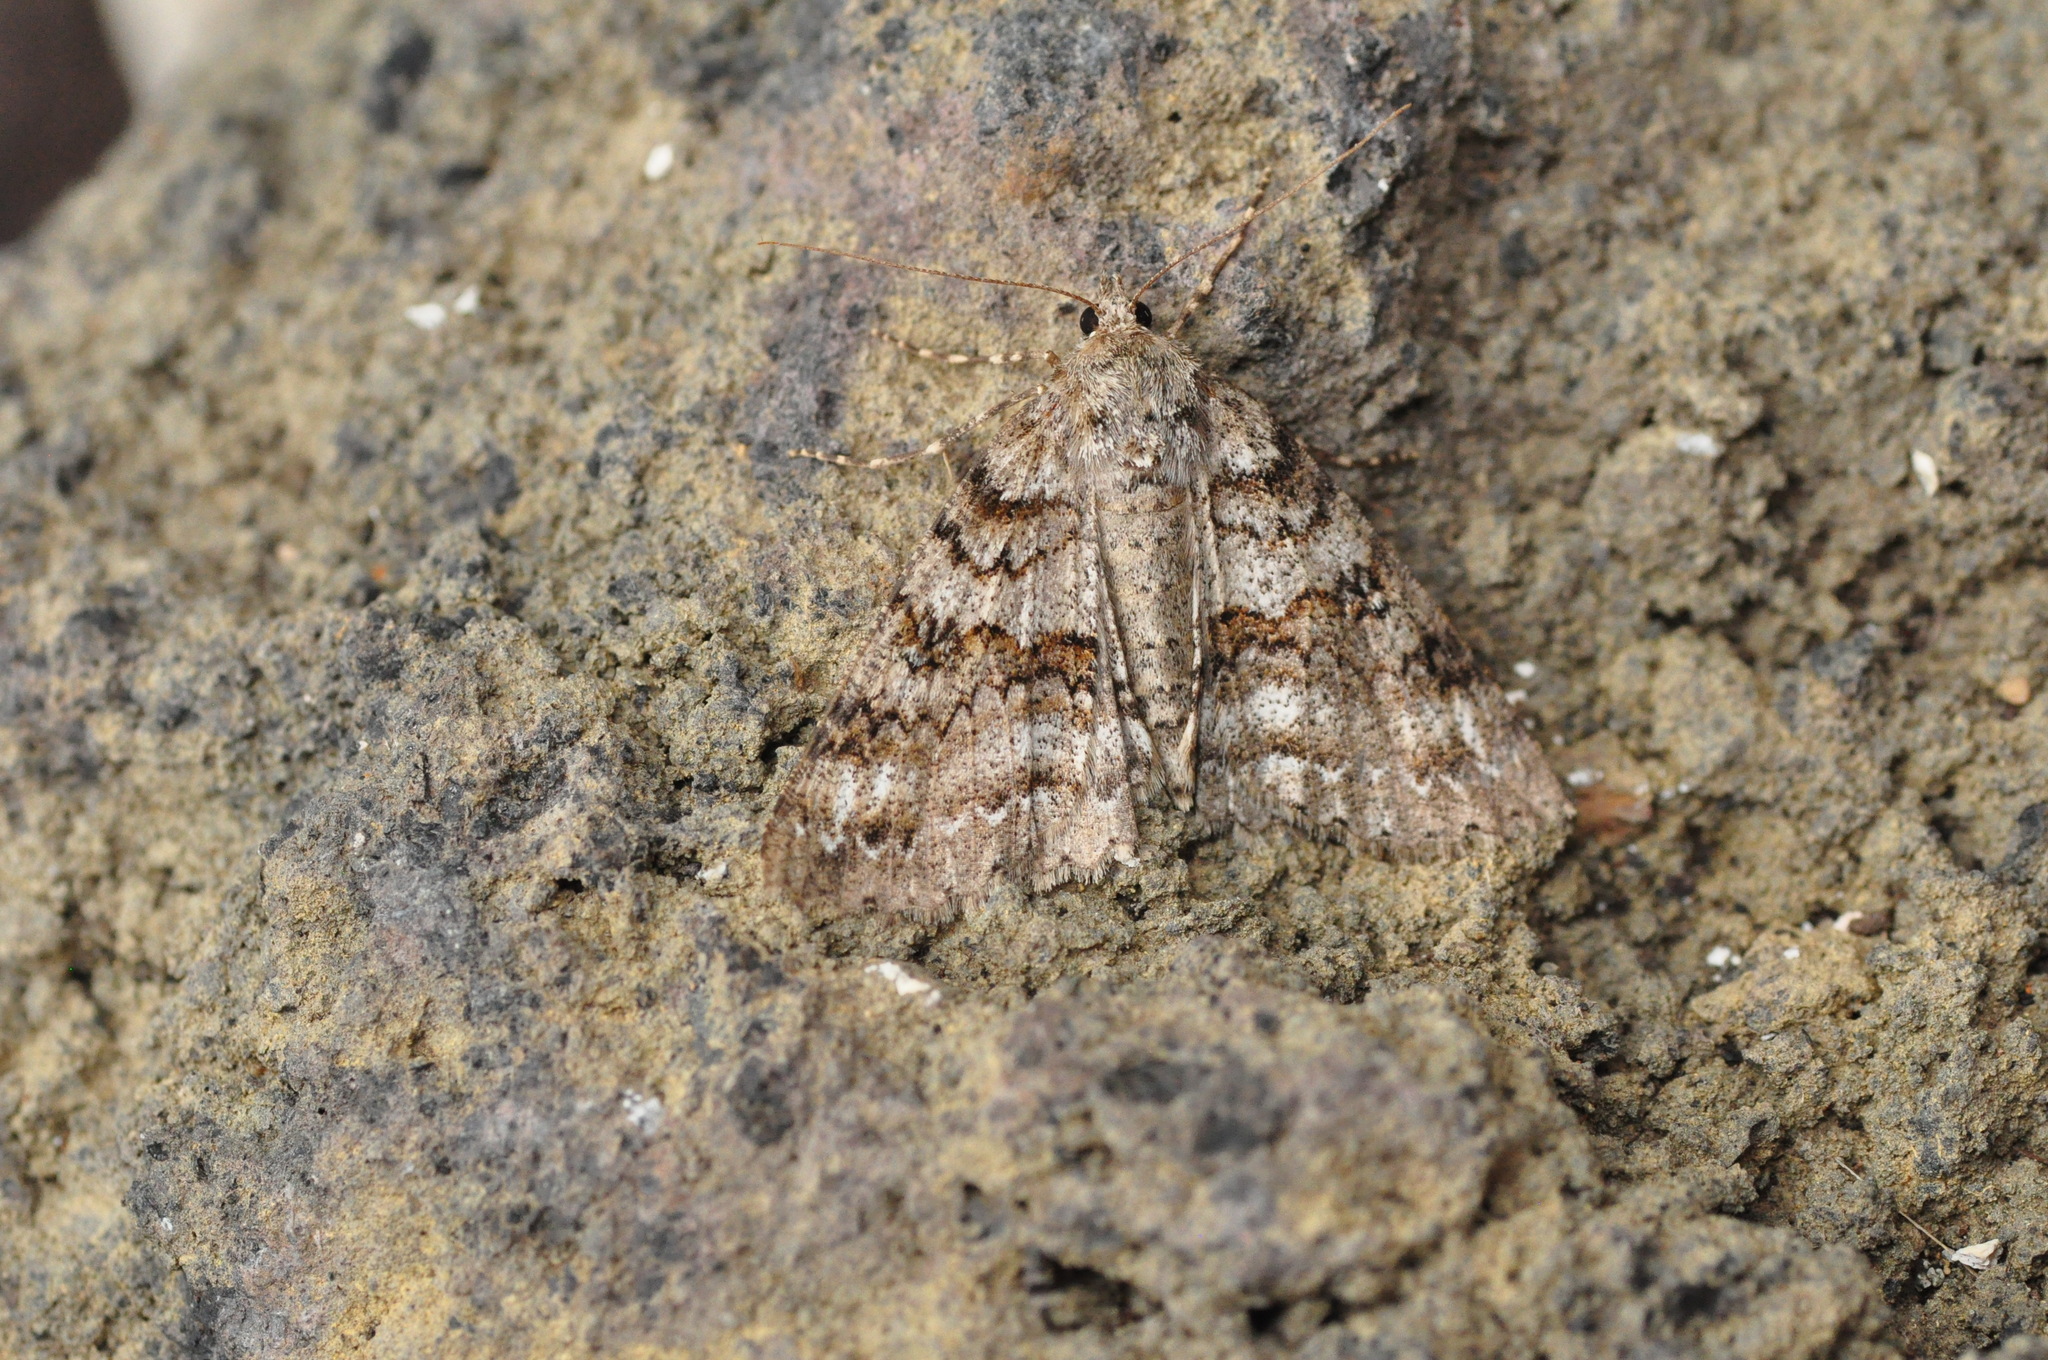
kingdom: Animalia
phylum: Arthropoda
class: Insecta
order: Lepidoptera
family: Geometridae
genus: Ascotis
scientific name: Ascotis fortunata
